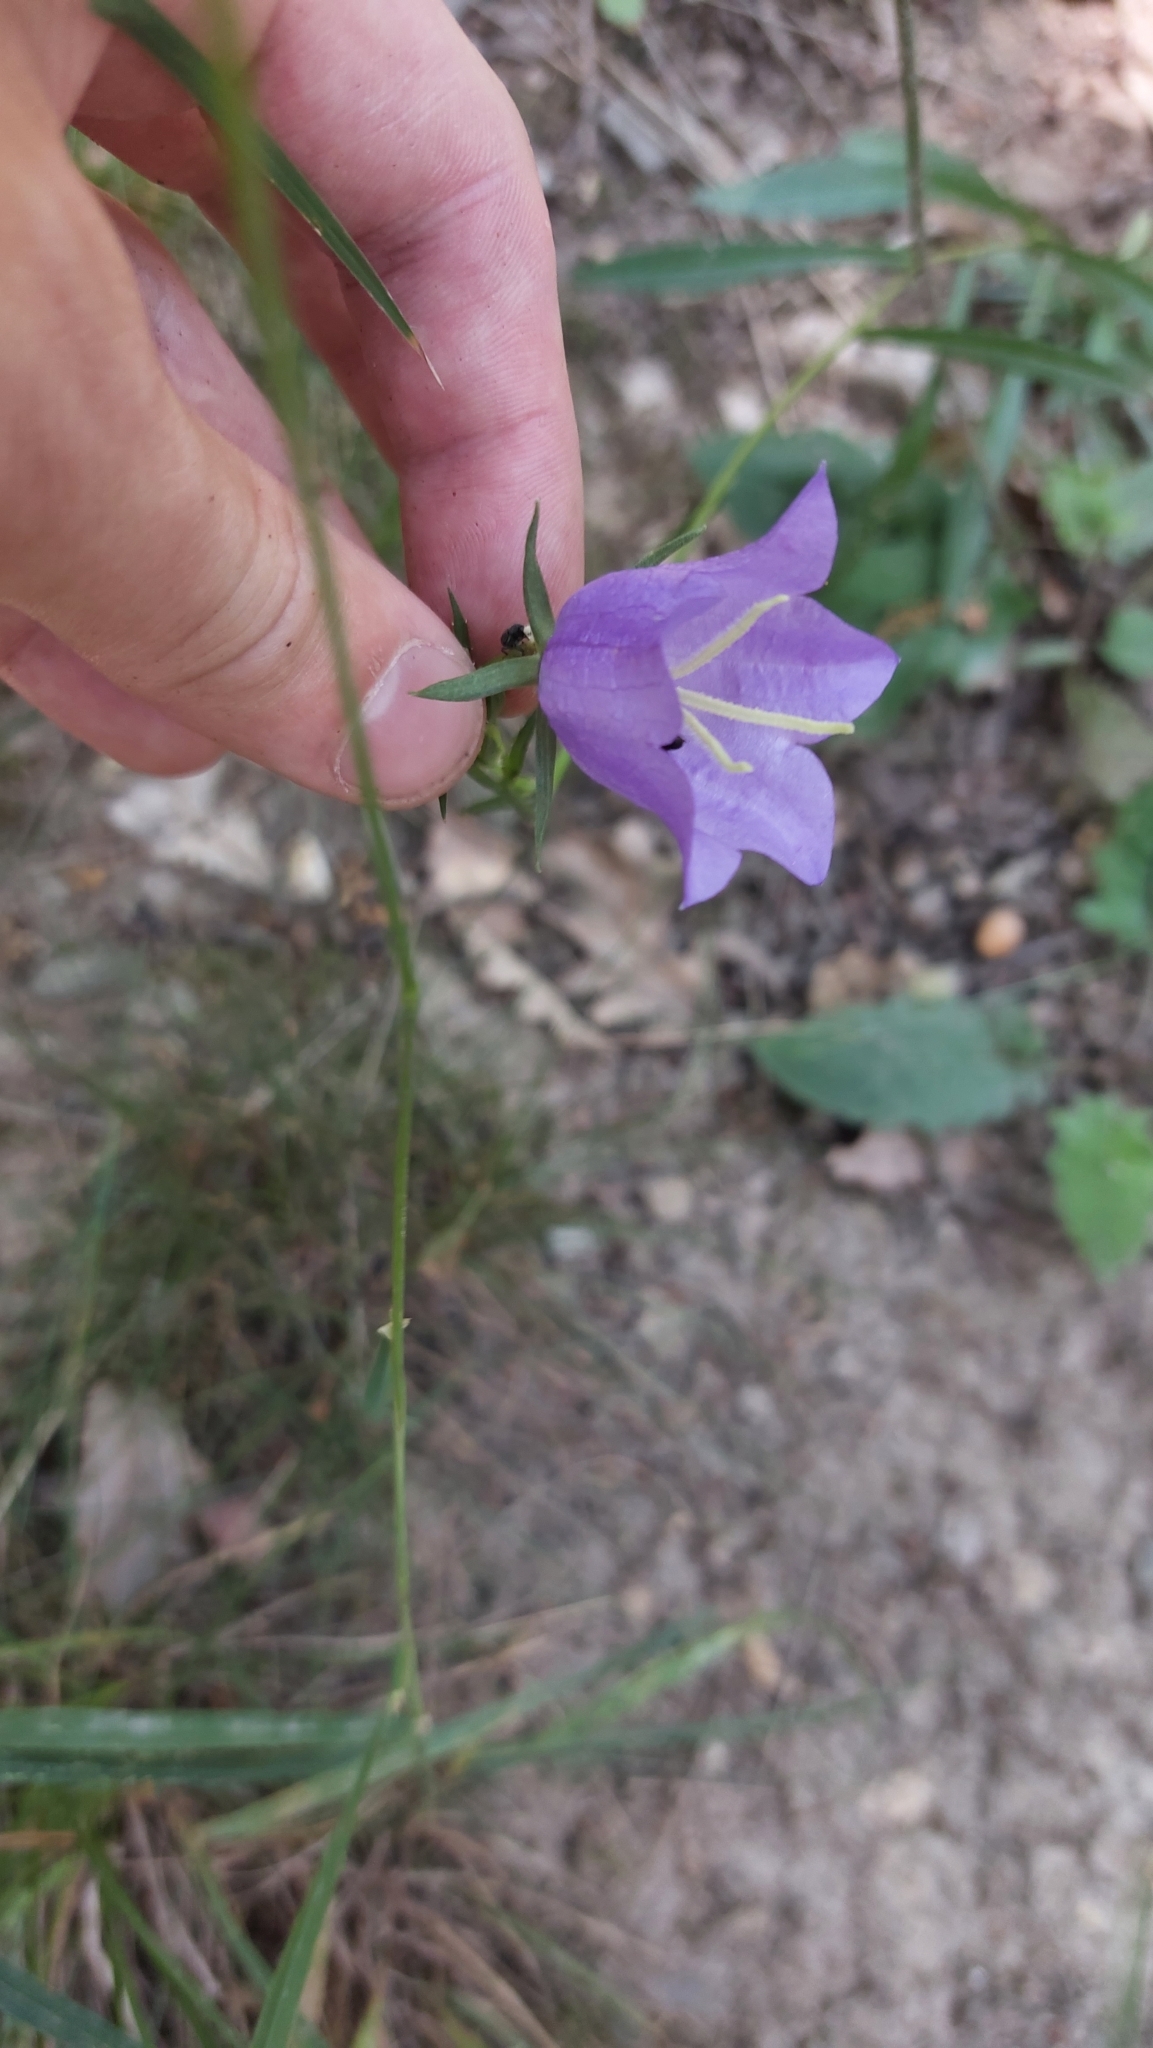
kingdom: Plantae
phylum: Tracheophyta
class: Magnoliopsida
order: Asterales
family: Campanulaceae
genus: Campanula
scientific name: Campanula persicifolia
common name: Peach-leaved bellflower
